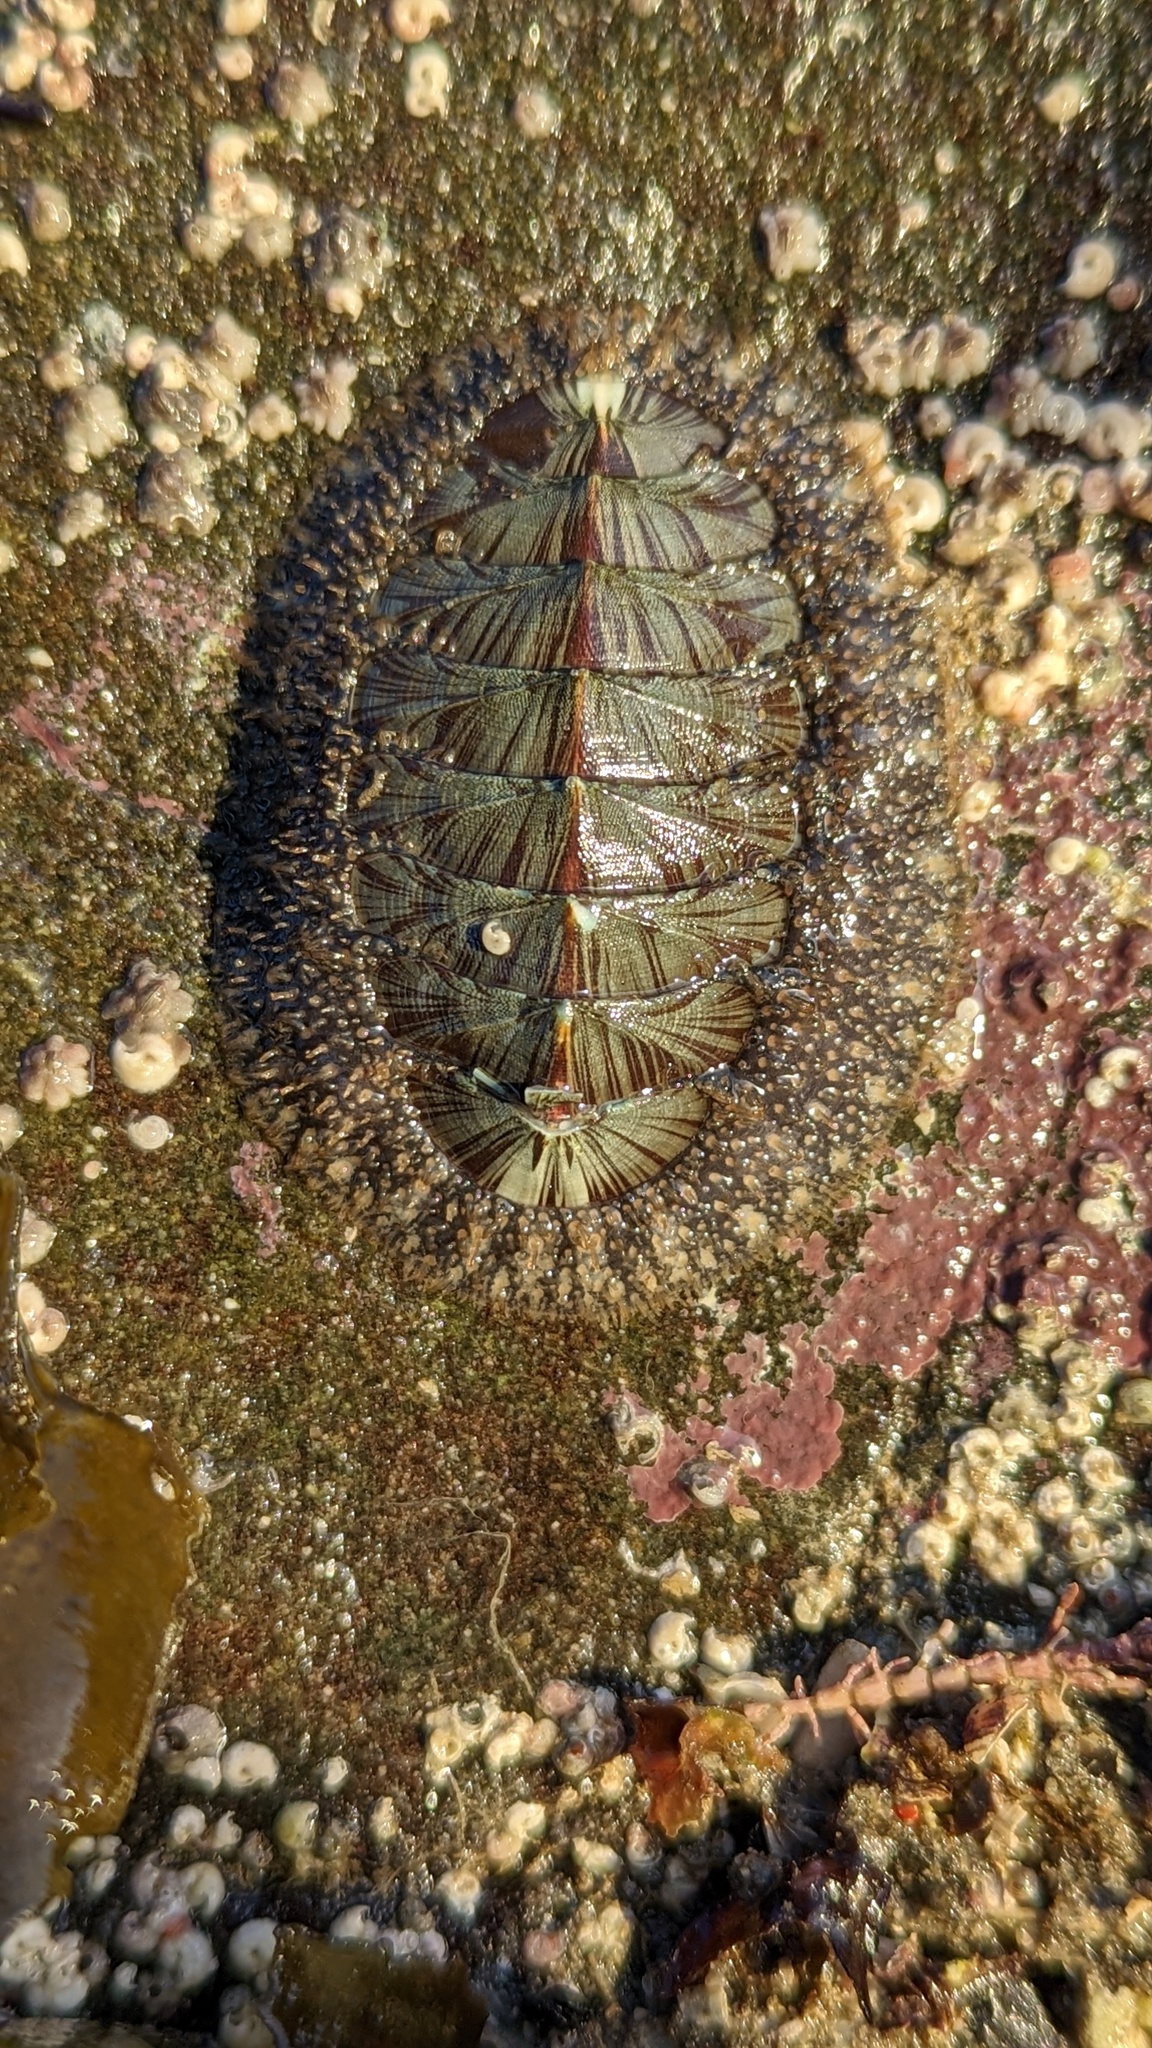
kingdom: Animalia
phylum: Mollusca
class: Polyplacophora
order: Chitonida
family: Mopaliidae
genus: Mopalia
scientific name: Mopalia lignosa
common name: Woody chiton
